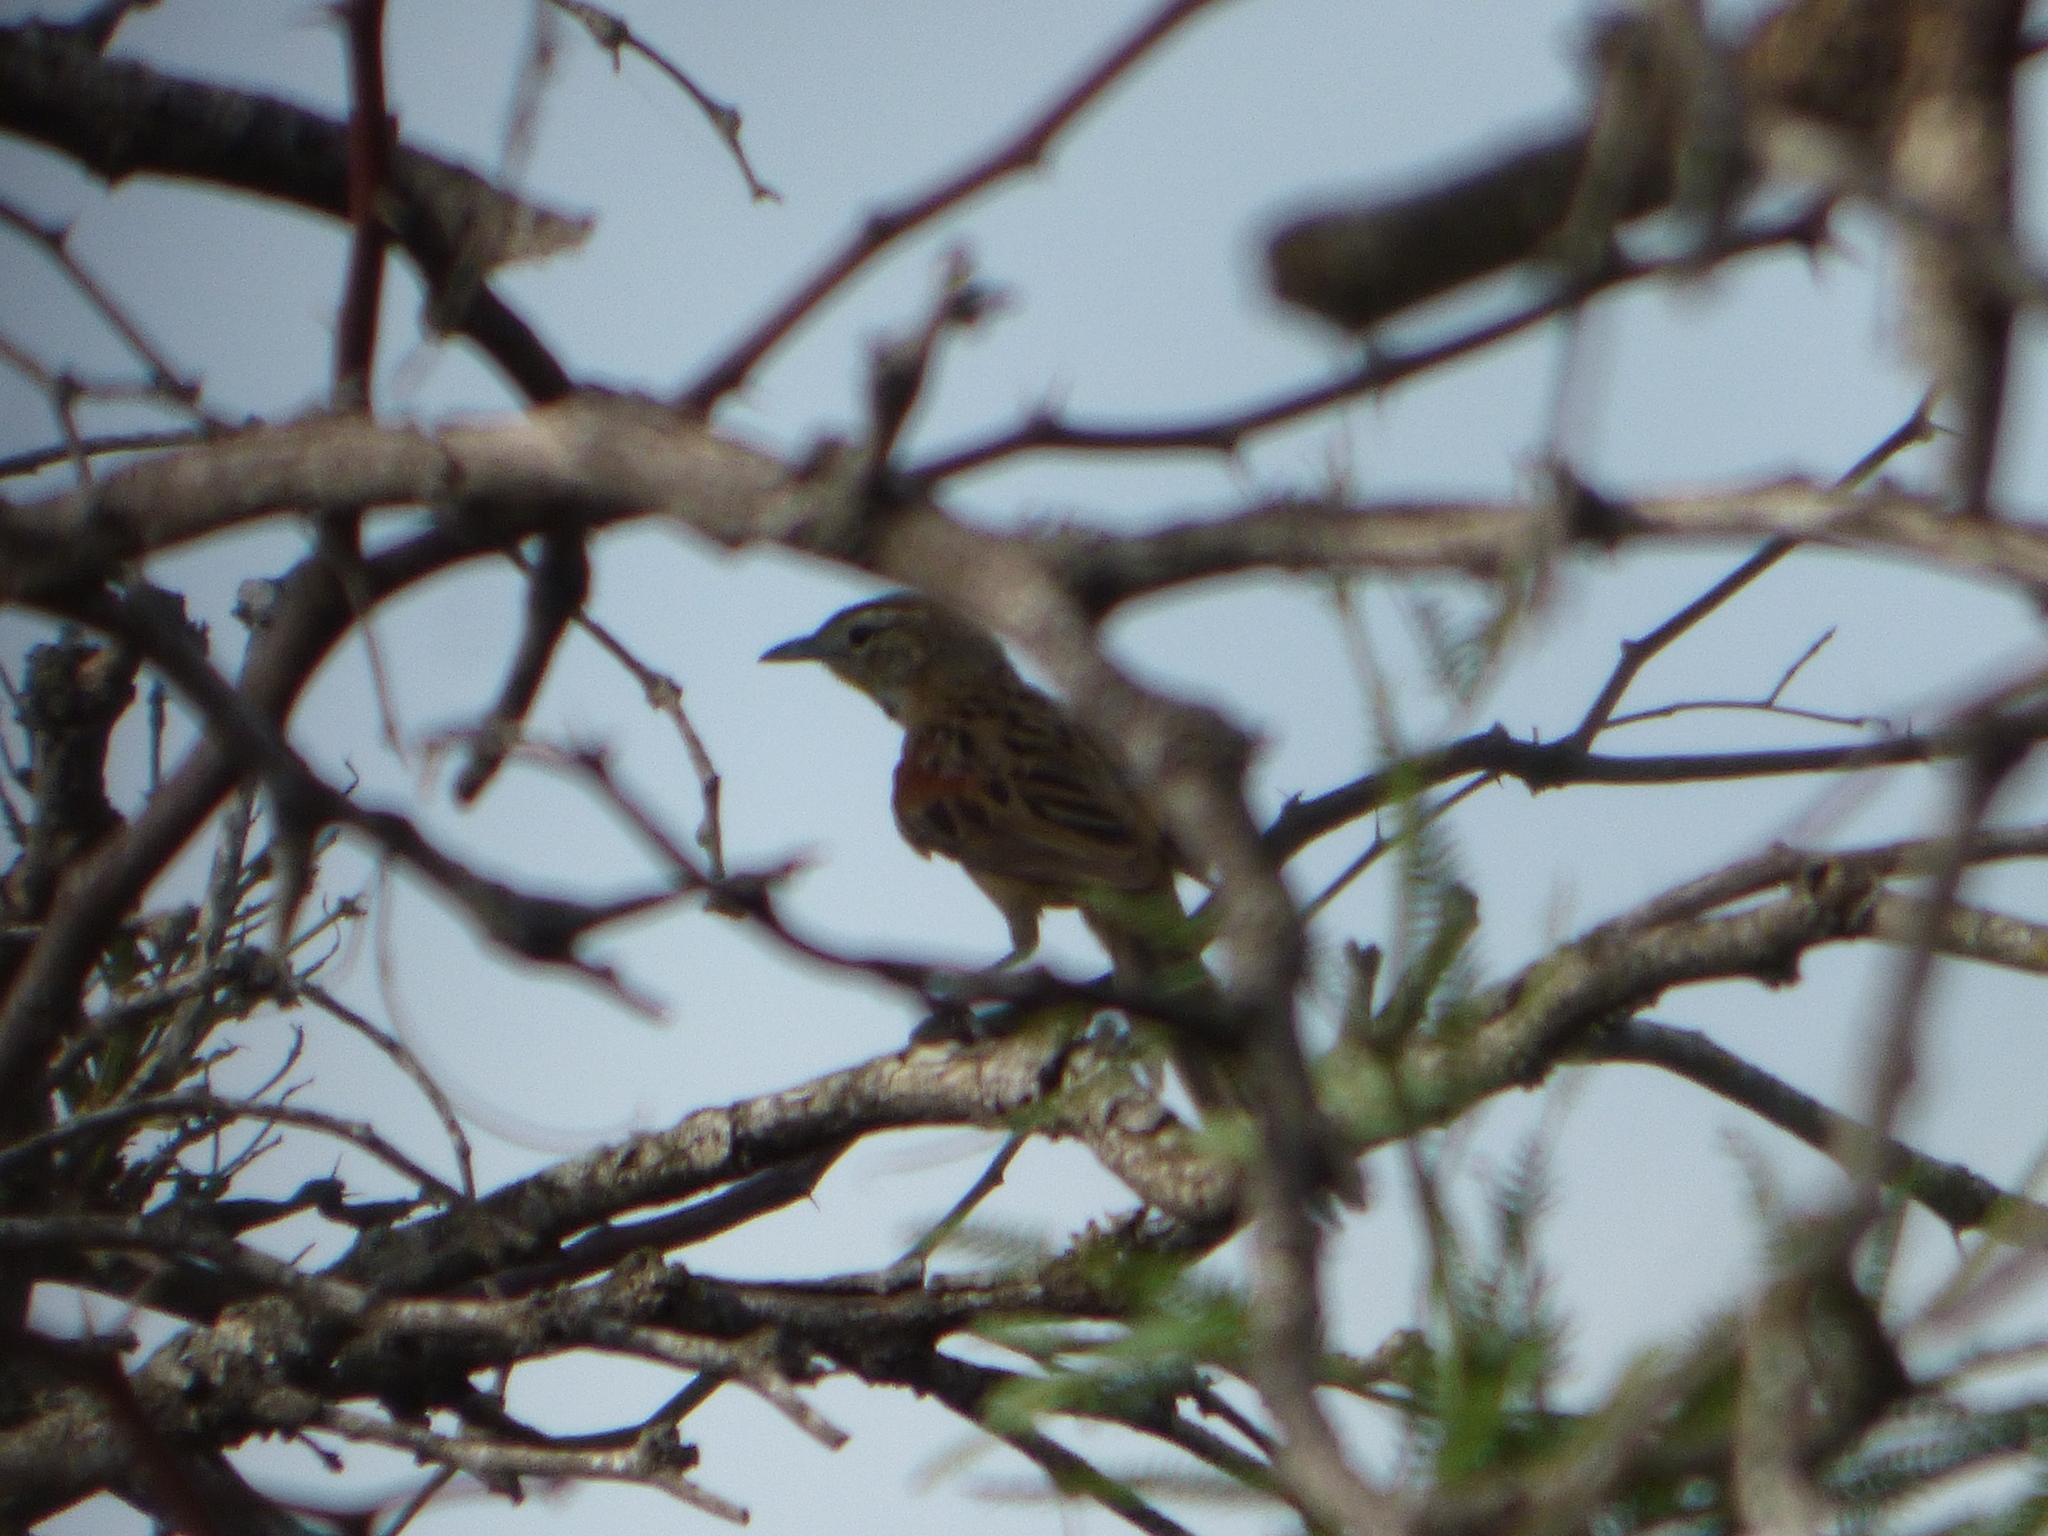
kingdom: Animalia
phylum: Chordata
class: Aves
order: Passeriformes
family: Furnariidae
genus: Schoeniophylax
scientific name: Schoeniophylax phryganophilus
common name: Chotoy spinetail
